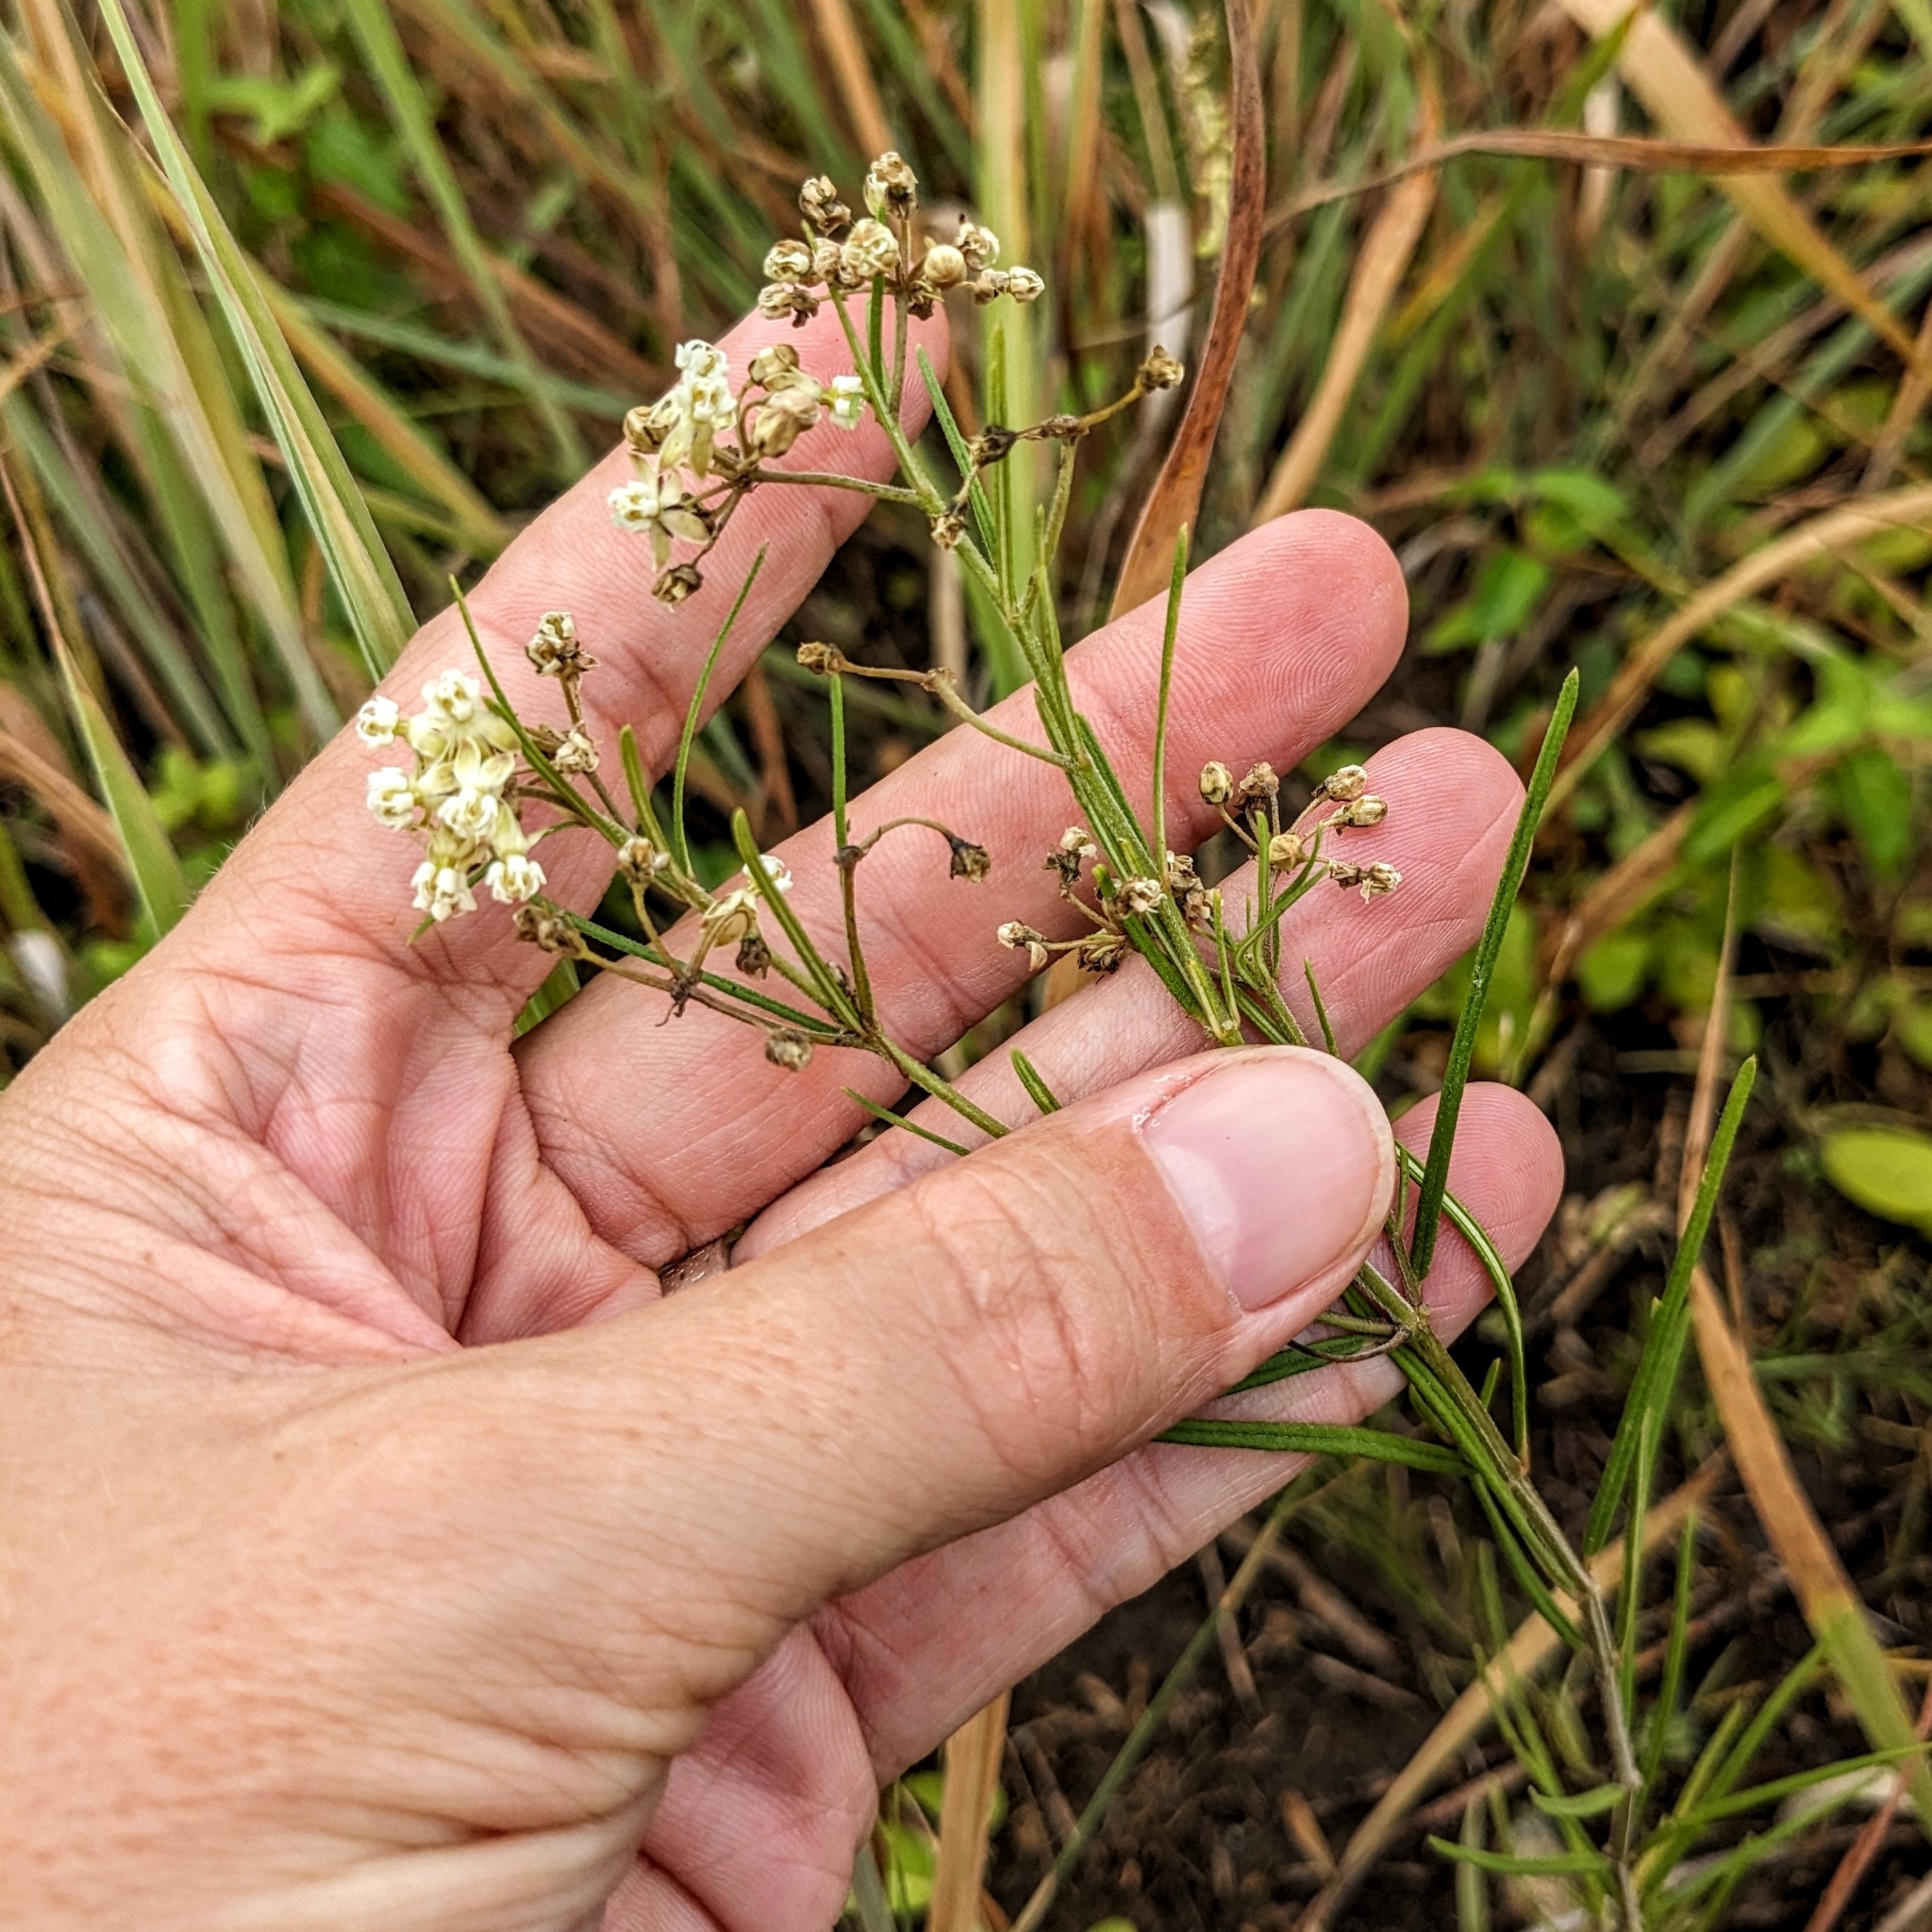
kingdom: Plantae
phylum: Tracheophyta
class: Magnoliopsida
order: Gentianales
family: Apocynaceae
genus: Asclepias
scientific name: Asclepias verticillata
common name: Eastern whorled milkweed
